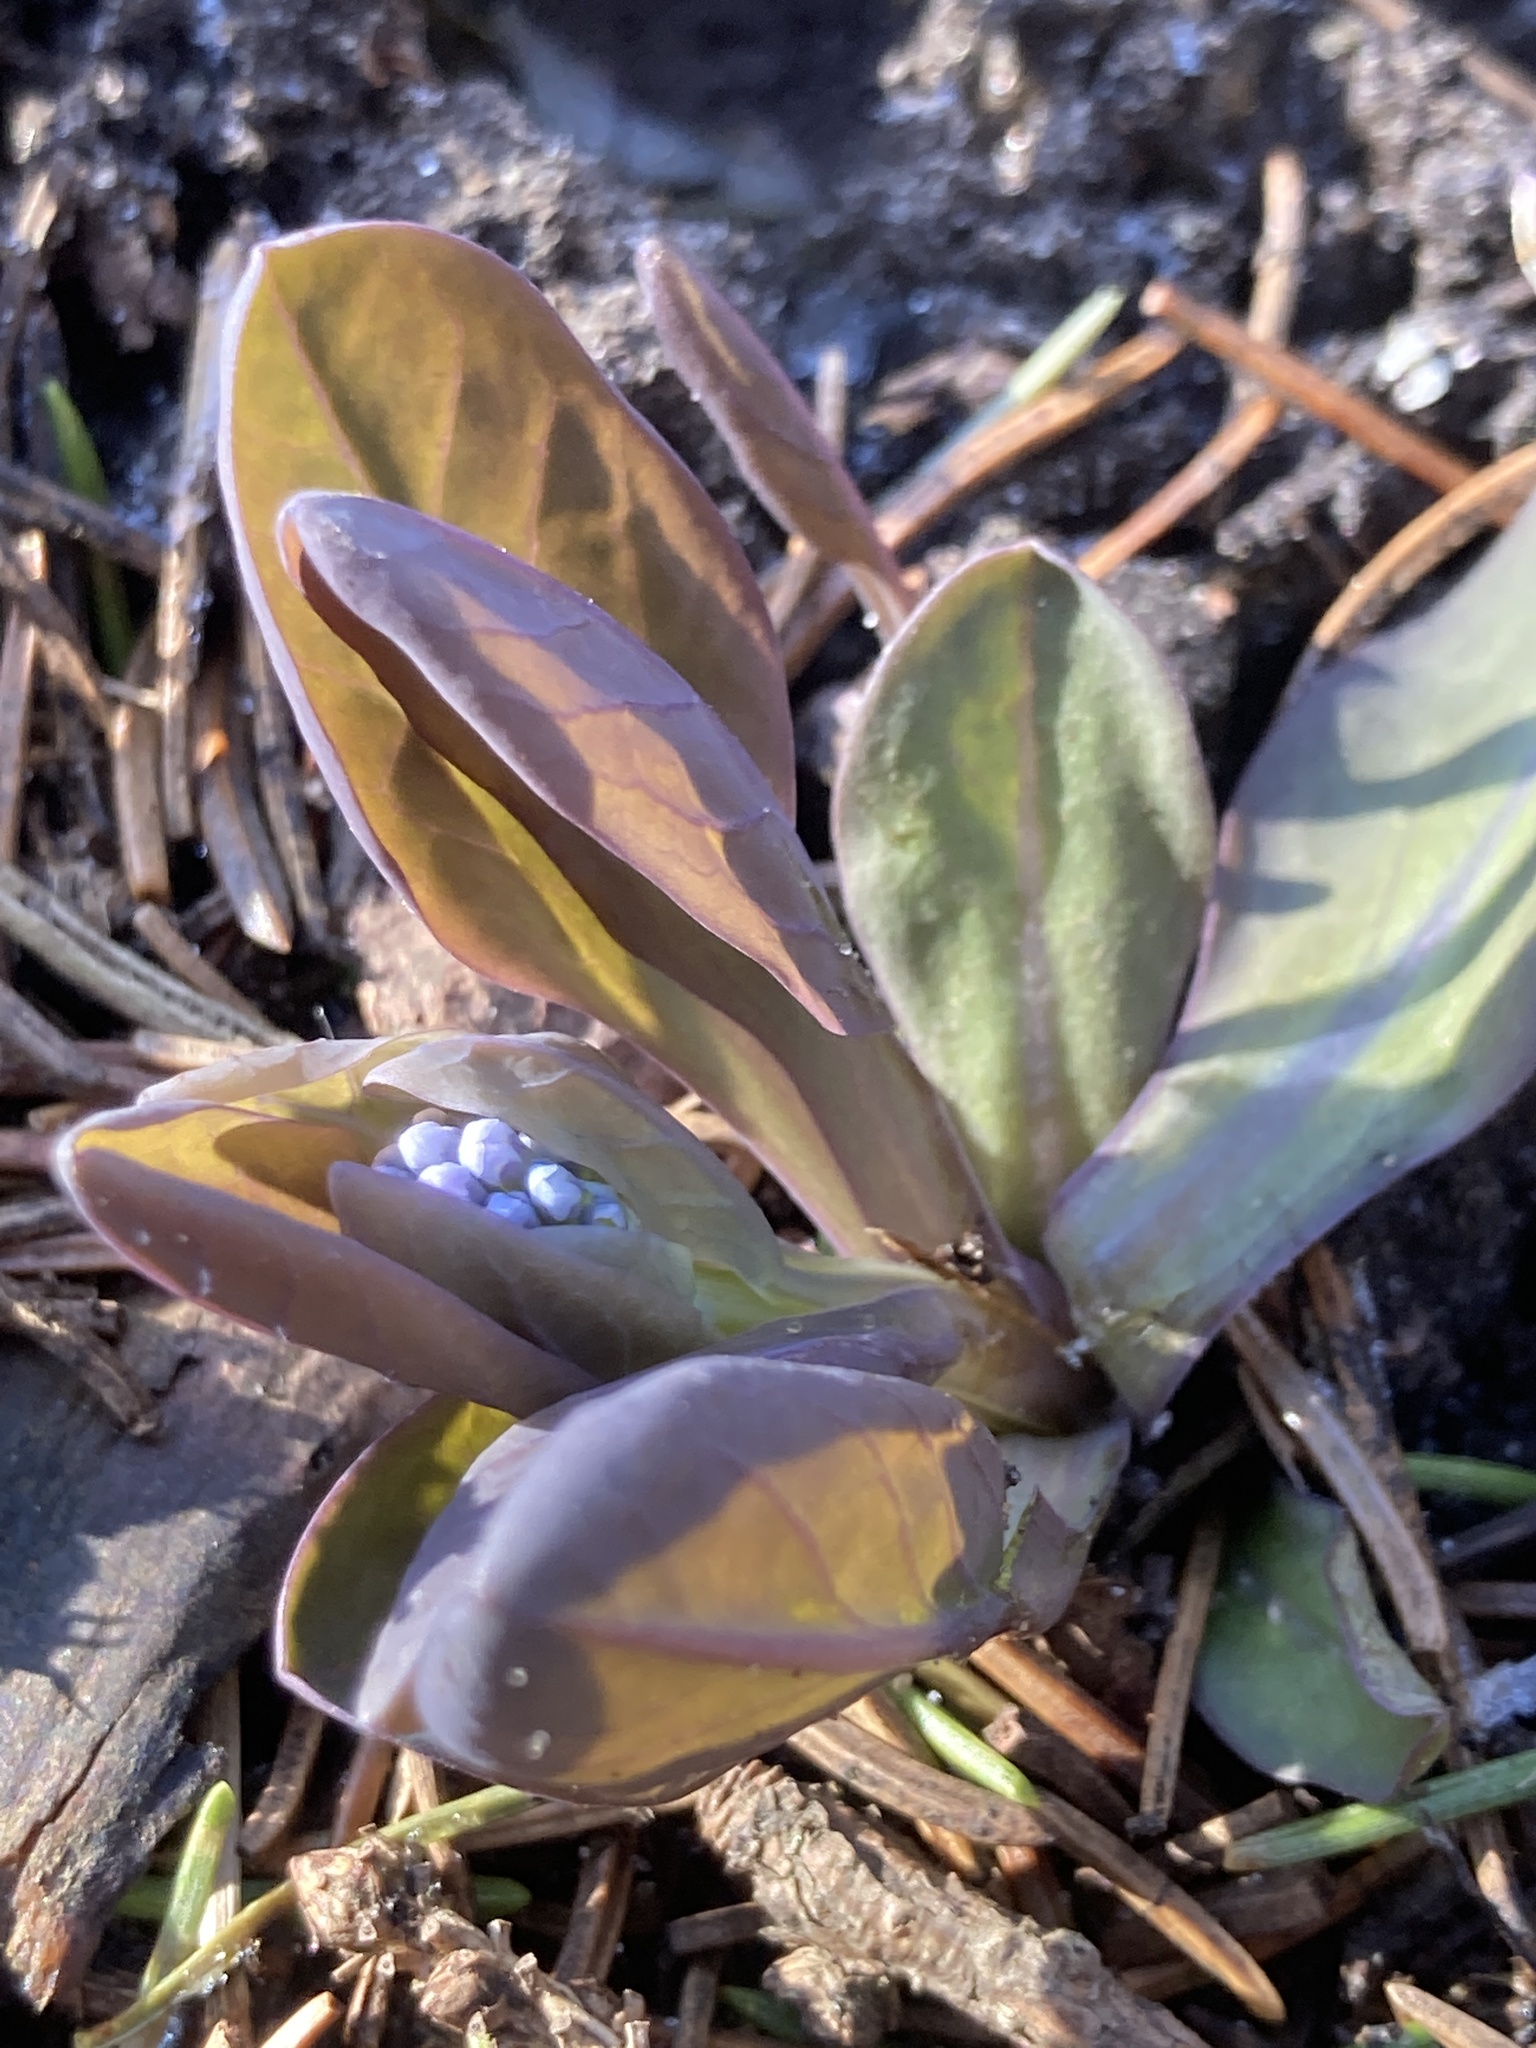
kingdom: Plantae
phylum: Tracheophyta
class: Magnoliopsida
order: Boraginales
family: Boraginaceae
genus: Mertensia
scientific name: Mertensia virginica
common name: Virginia bluebells
